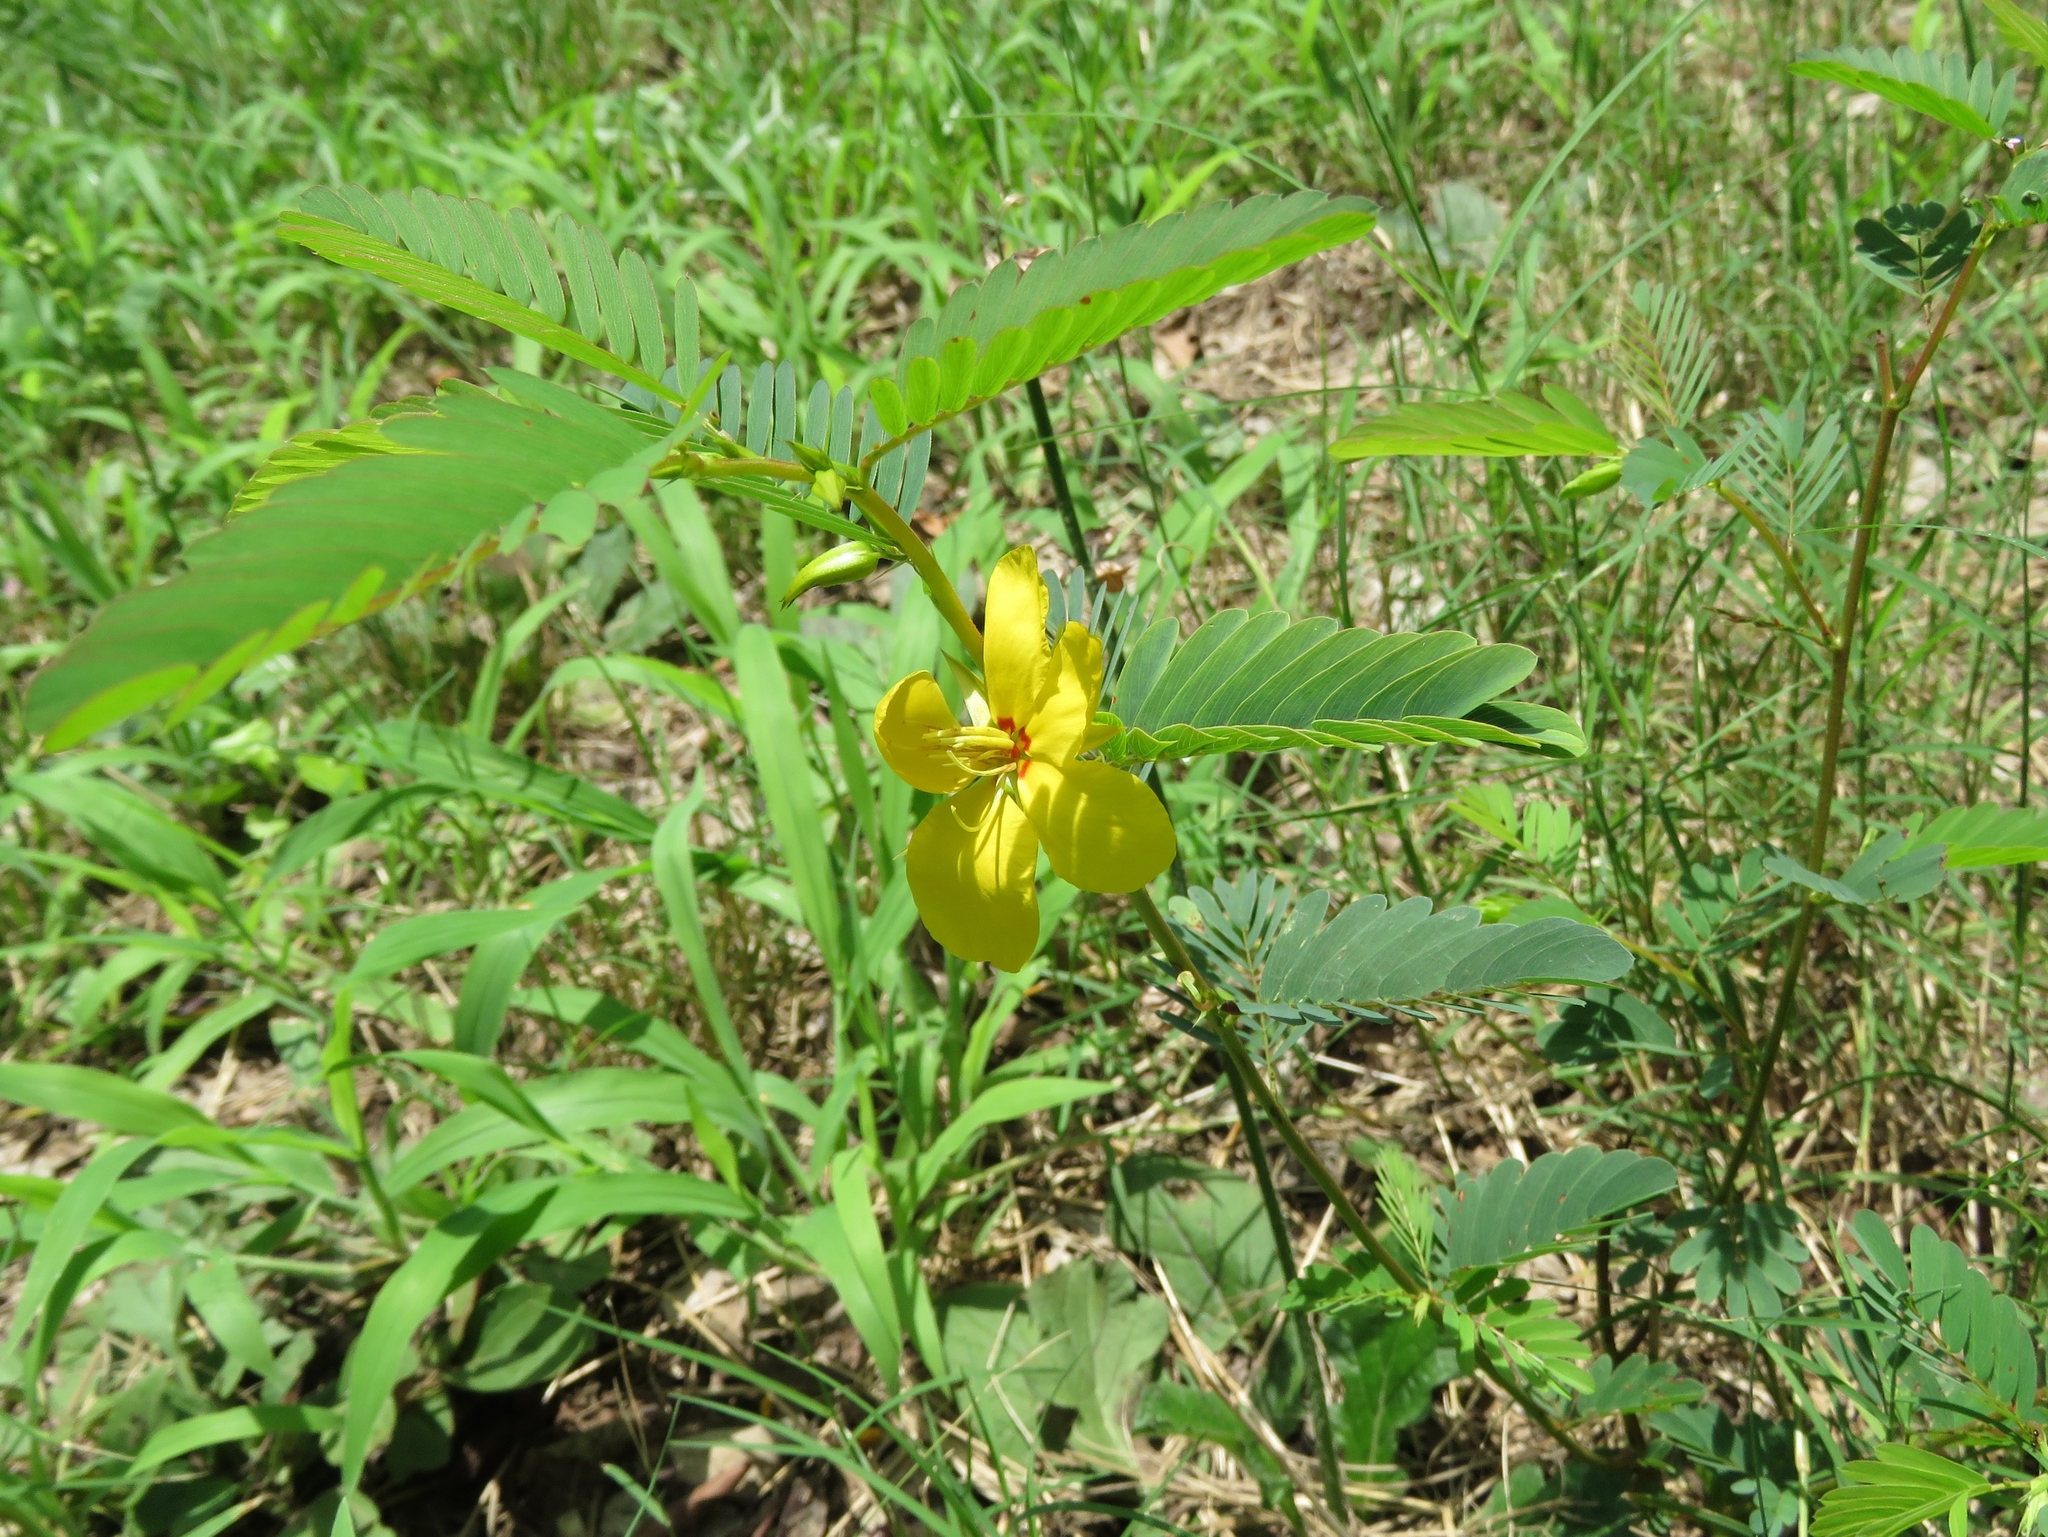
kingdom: Plantae
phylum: Tracheophyta
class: Magnoliopsida
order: Fabales
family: Fabaceae
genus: Chamaecrista
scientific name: Chamaecrista fasciculata
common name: Golden cassia
